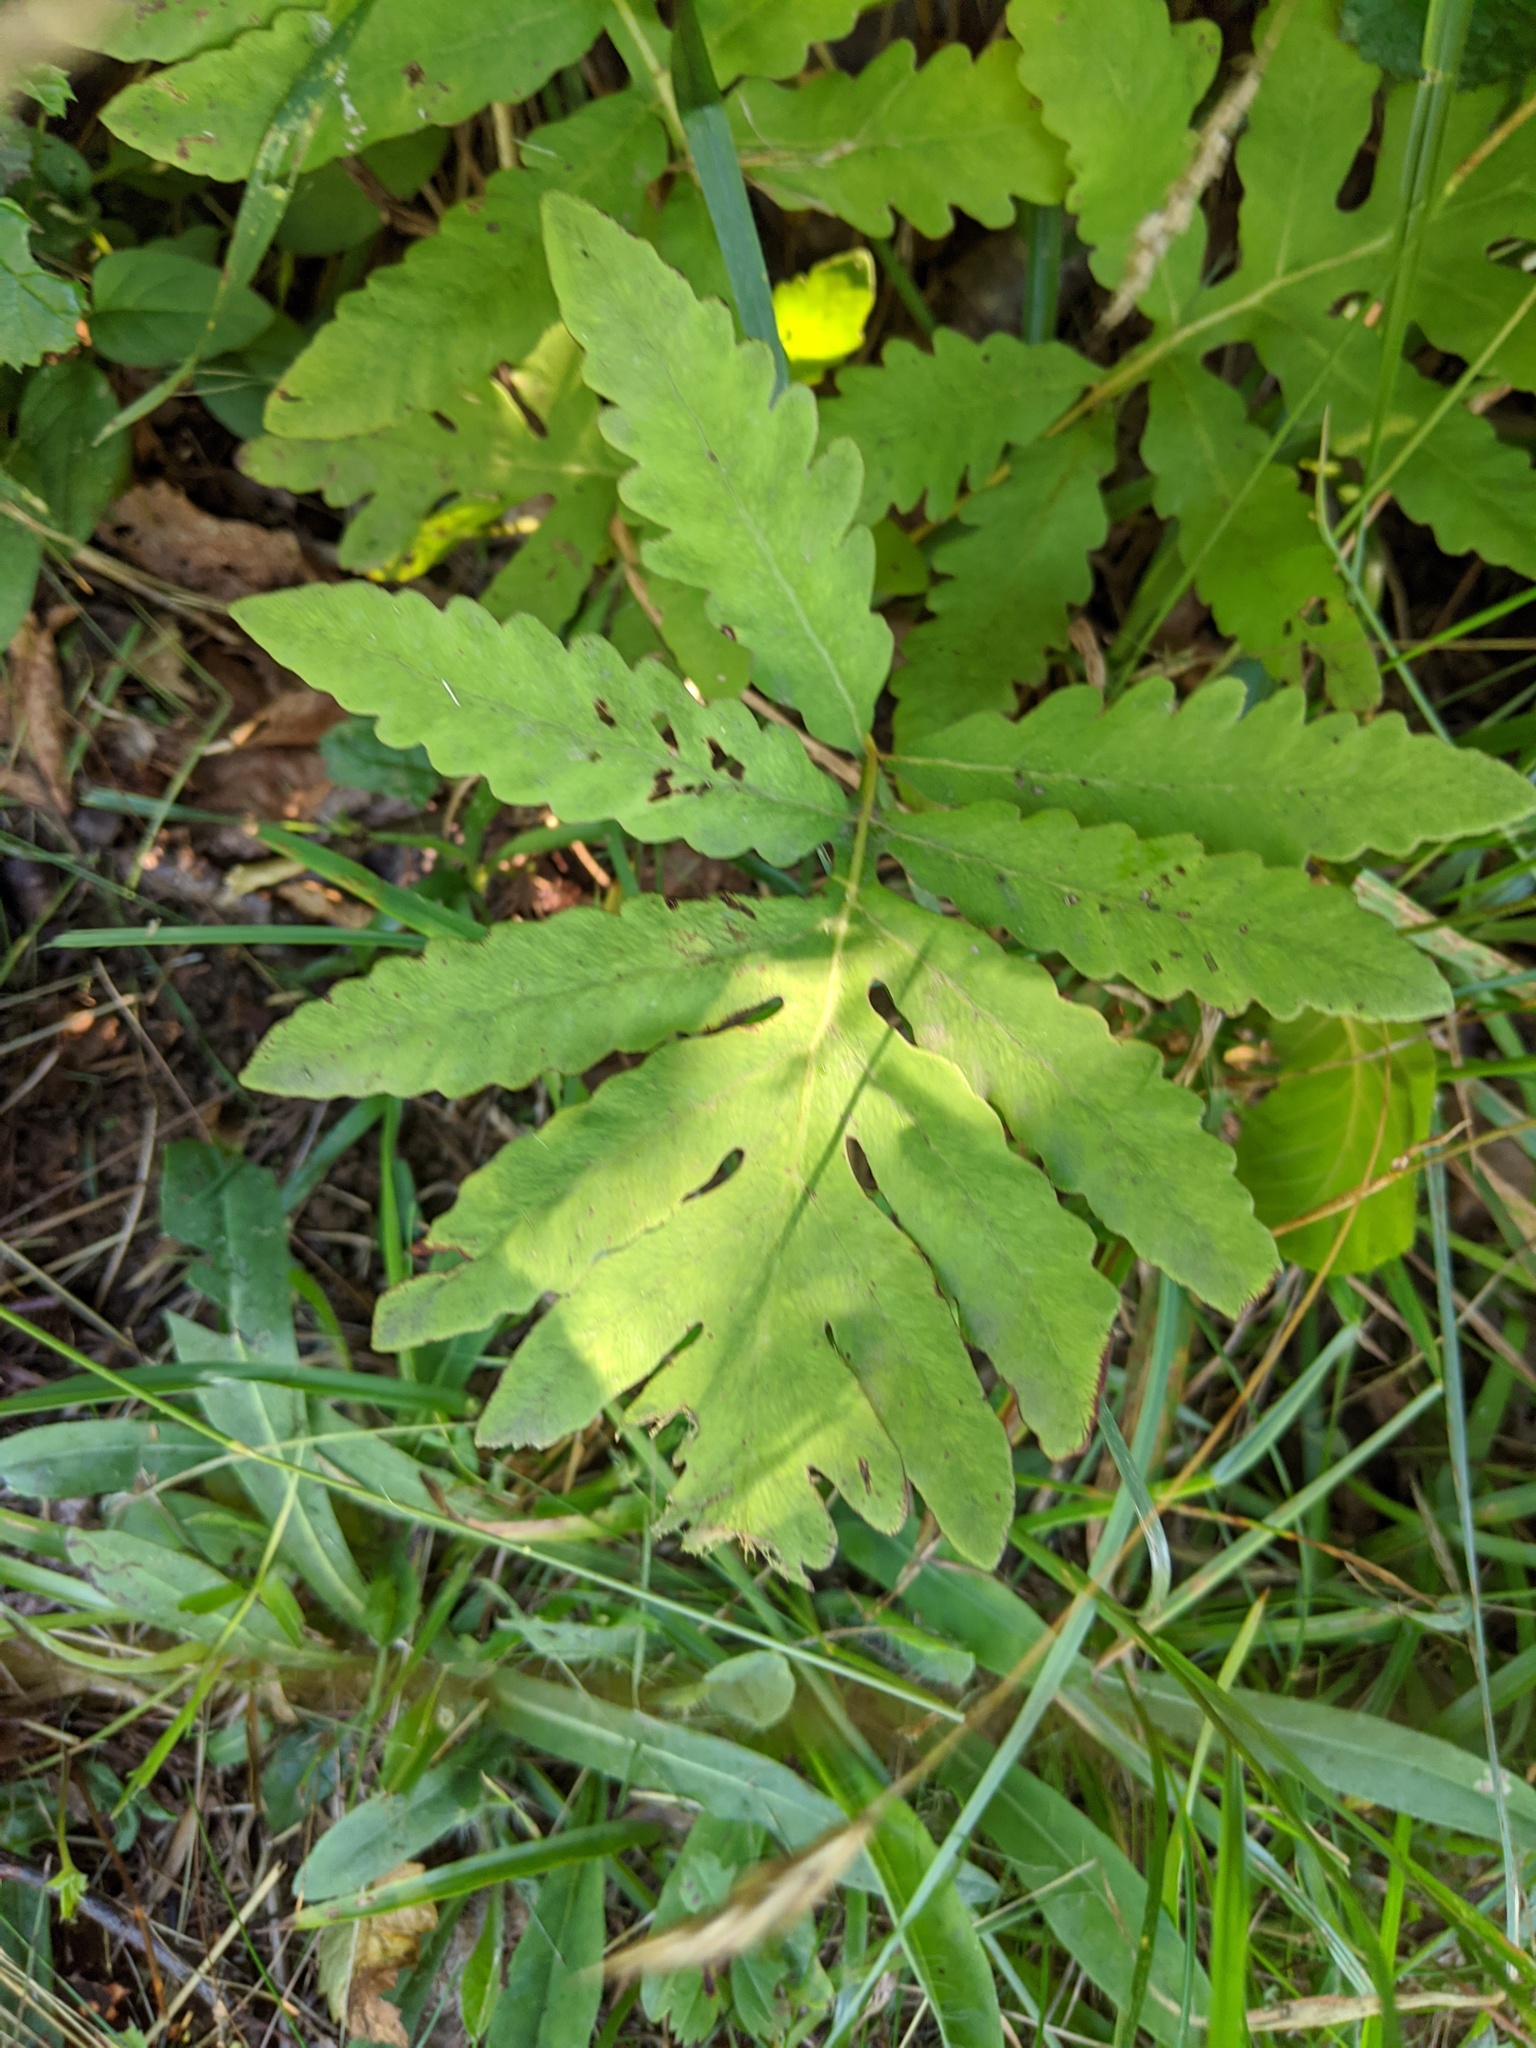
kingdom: Plantae
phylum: Tracheophyta
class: Polypodiopsida
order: Polypodiales
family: Onocleaceae
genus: Onoclea
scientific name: Onoclea sensibilis
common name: Sensitive fern
